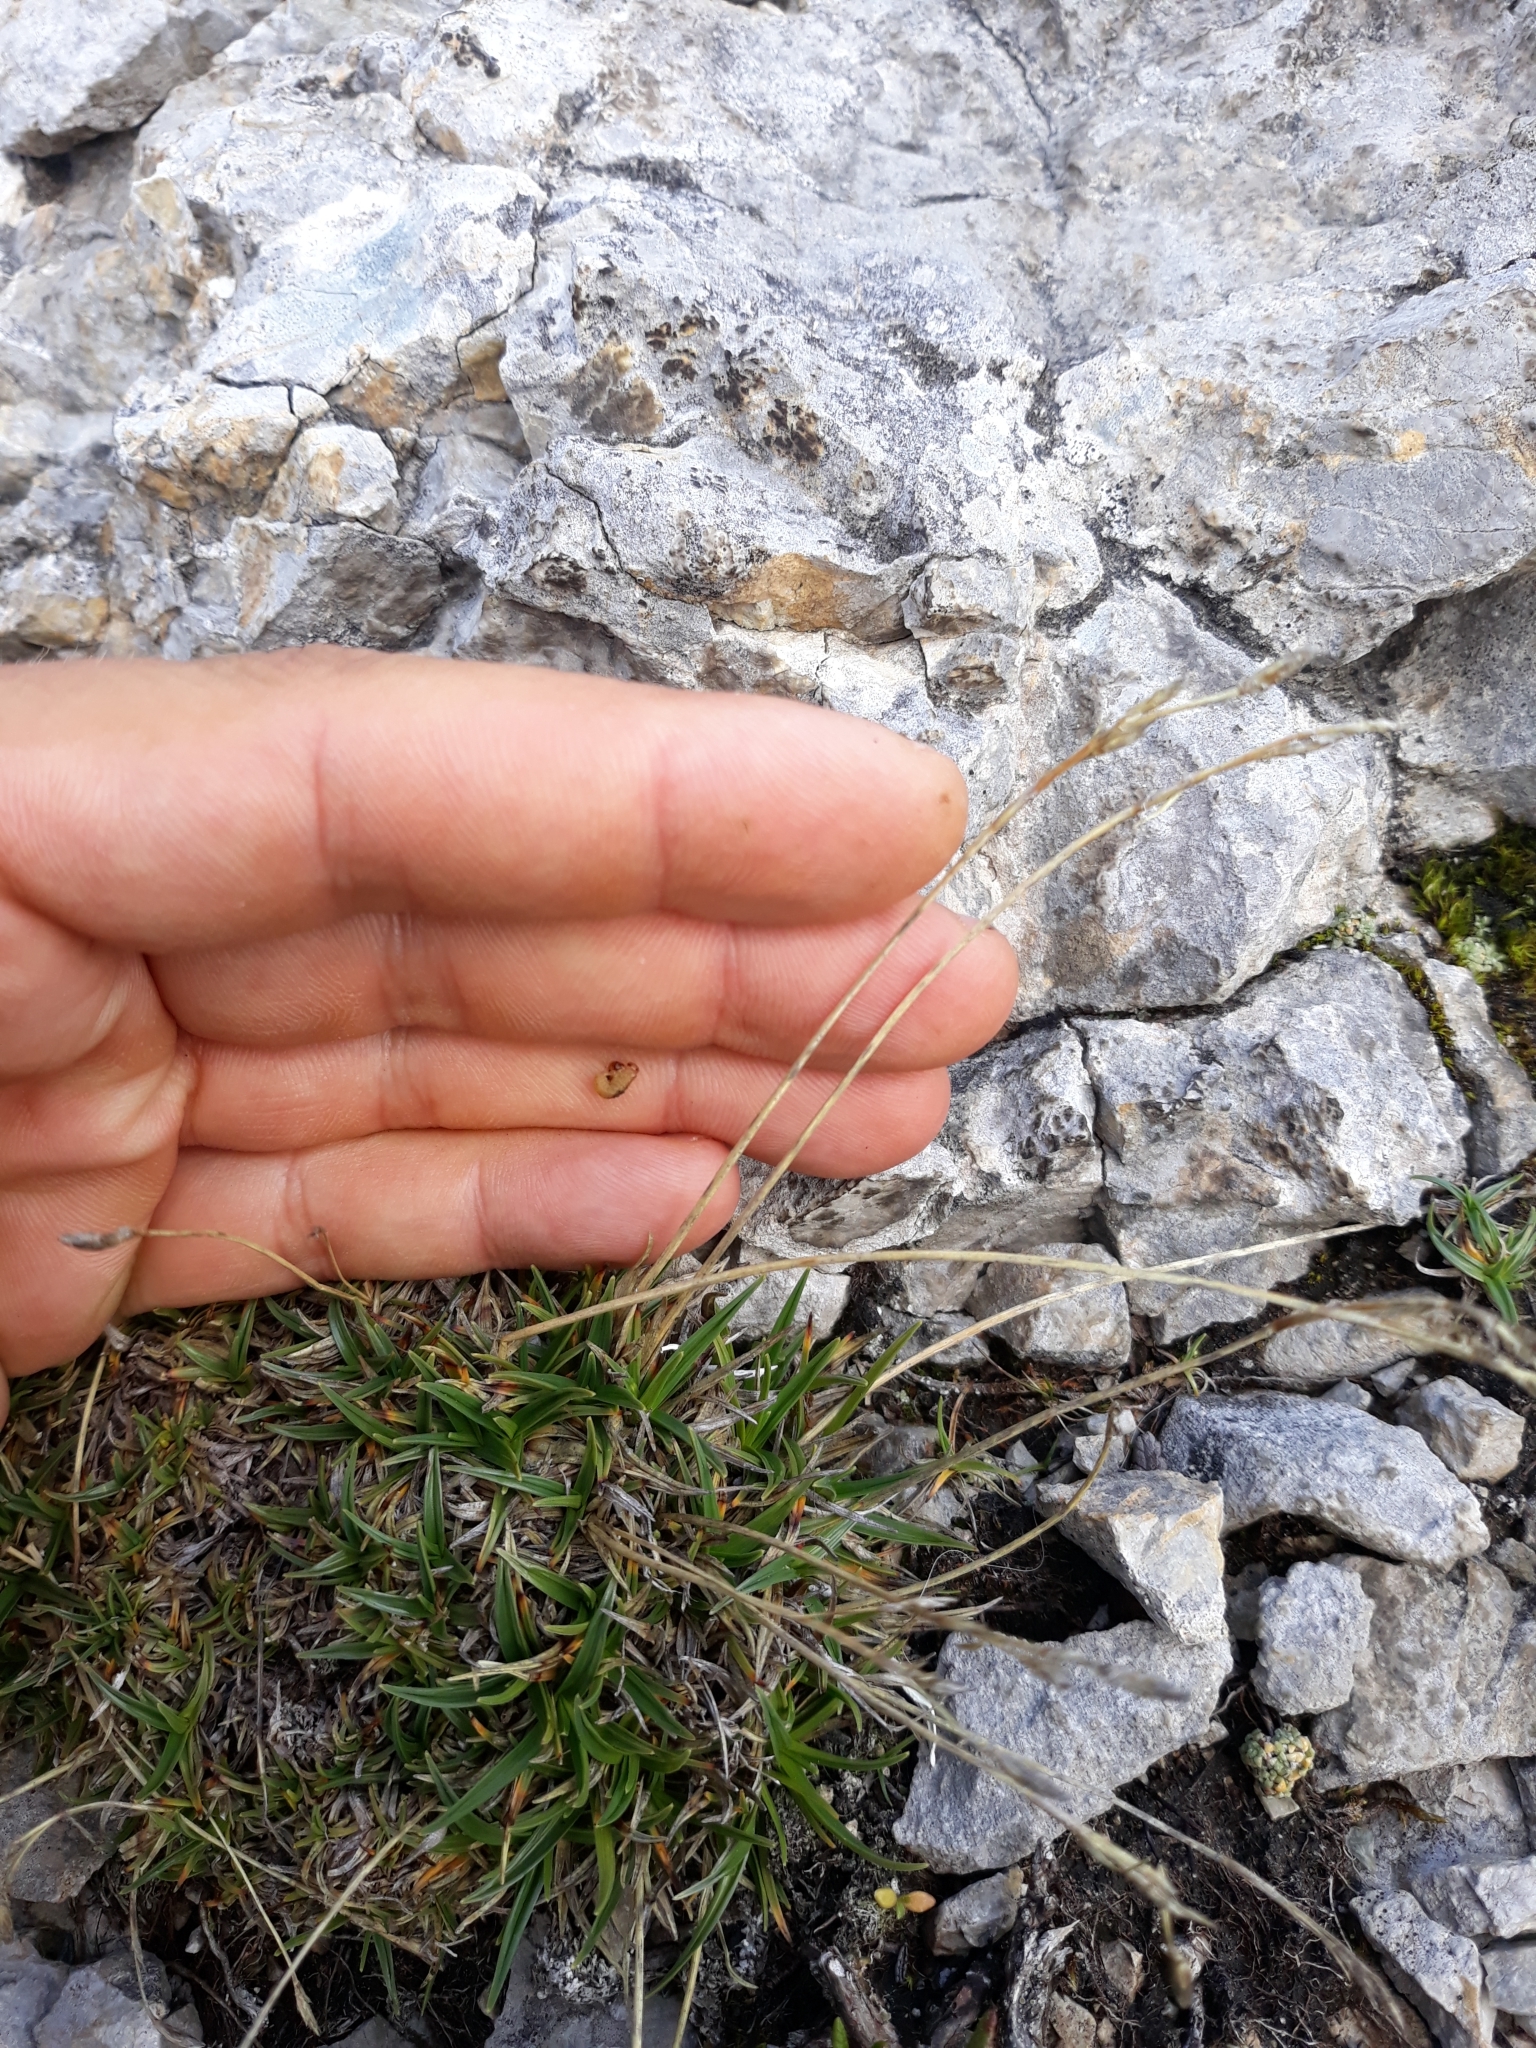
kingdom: Plantae
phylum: Tracheophyta
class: Liliopsida
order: Poales
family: Cyperaceae
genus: Carex
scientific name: Carex firma
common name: Dwarf pillow sedge
